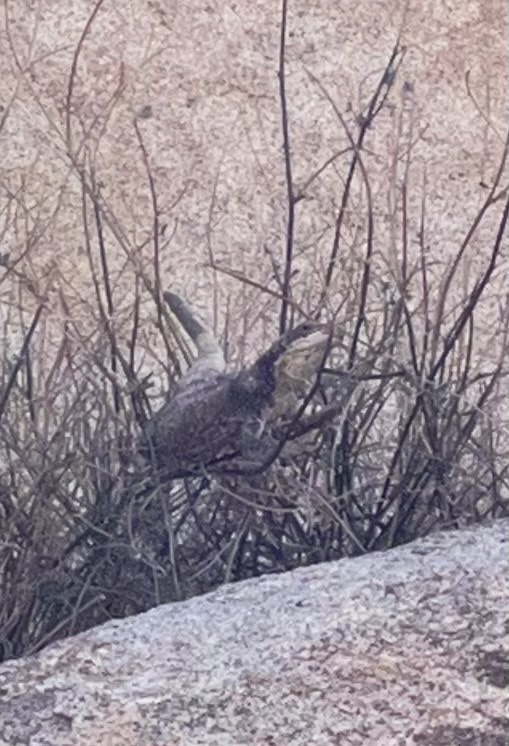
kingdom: Animalia
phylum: Chordata
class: Squamata
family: Iguanidae
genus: Sauromalus
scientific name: Sauromalus ater
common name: Northern chuckwalla
